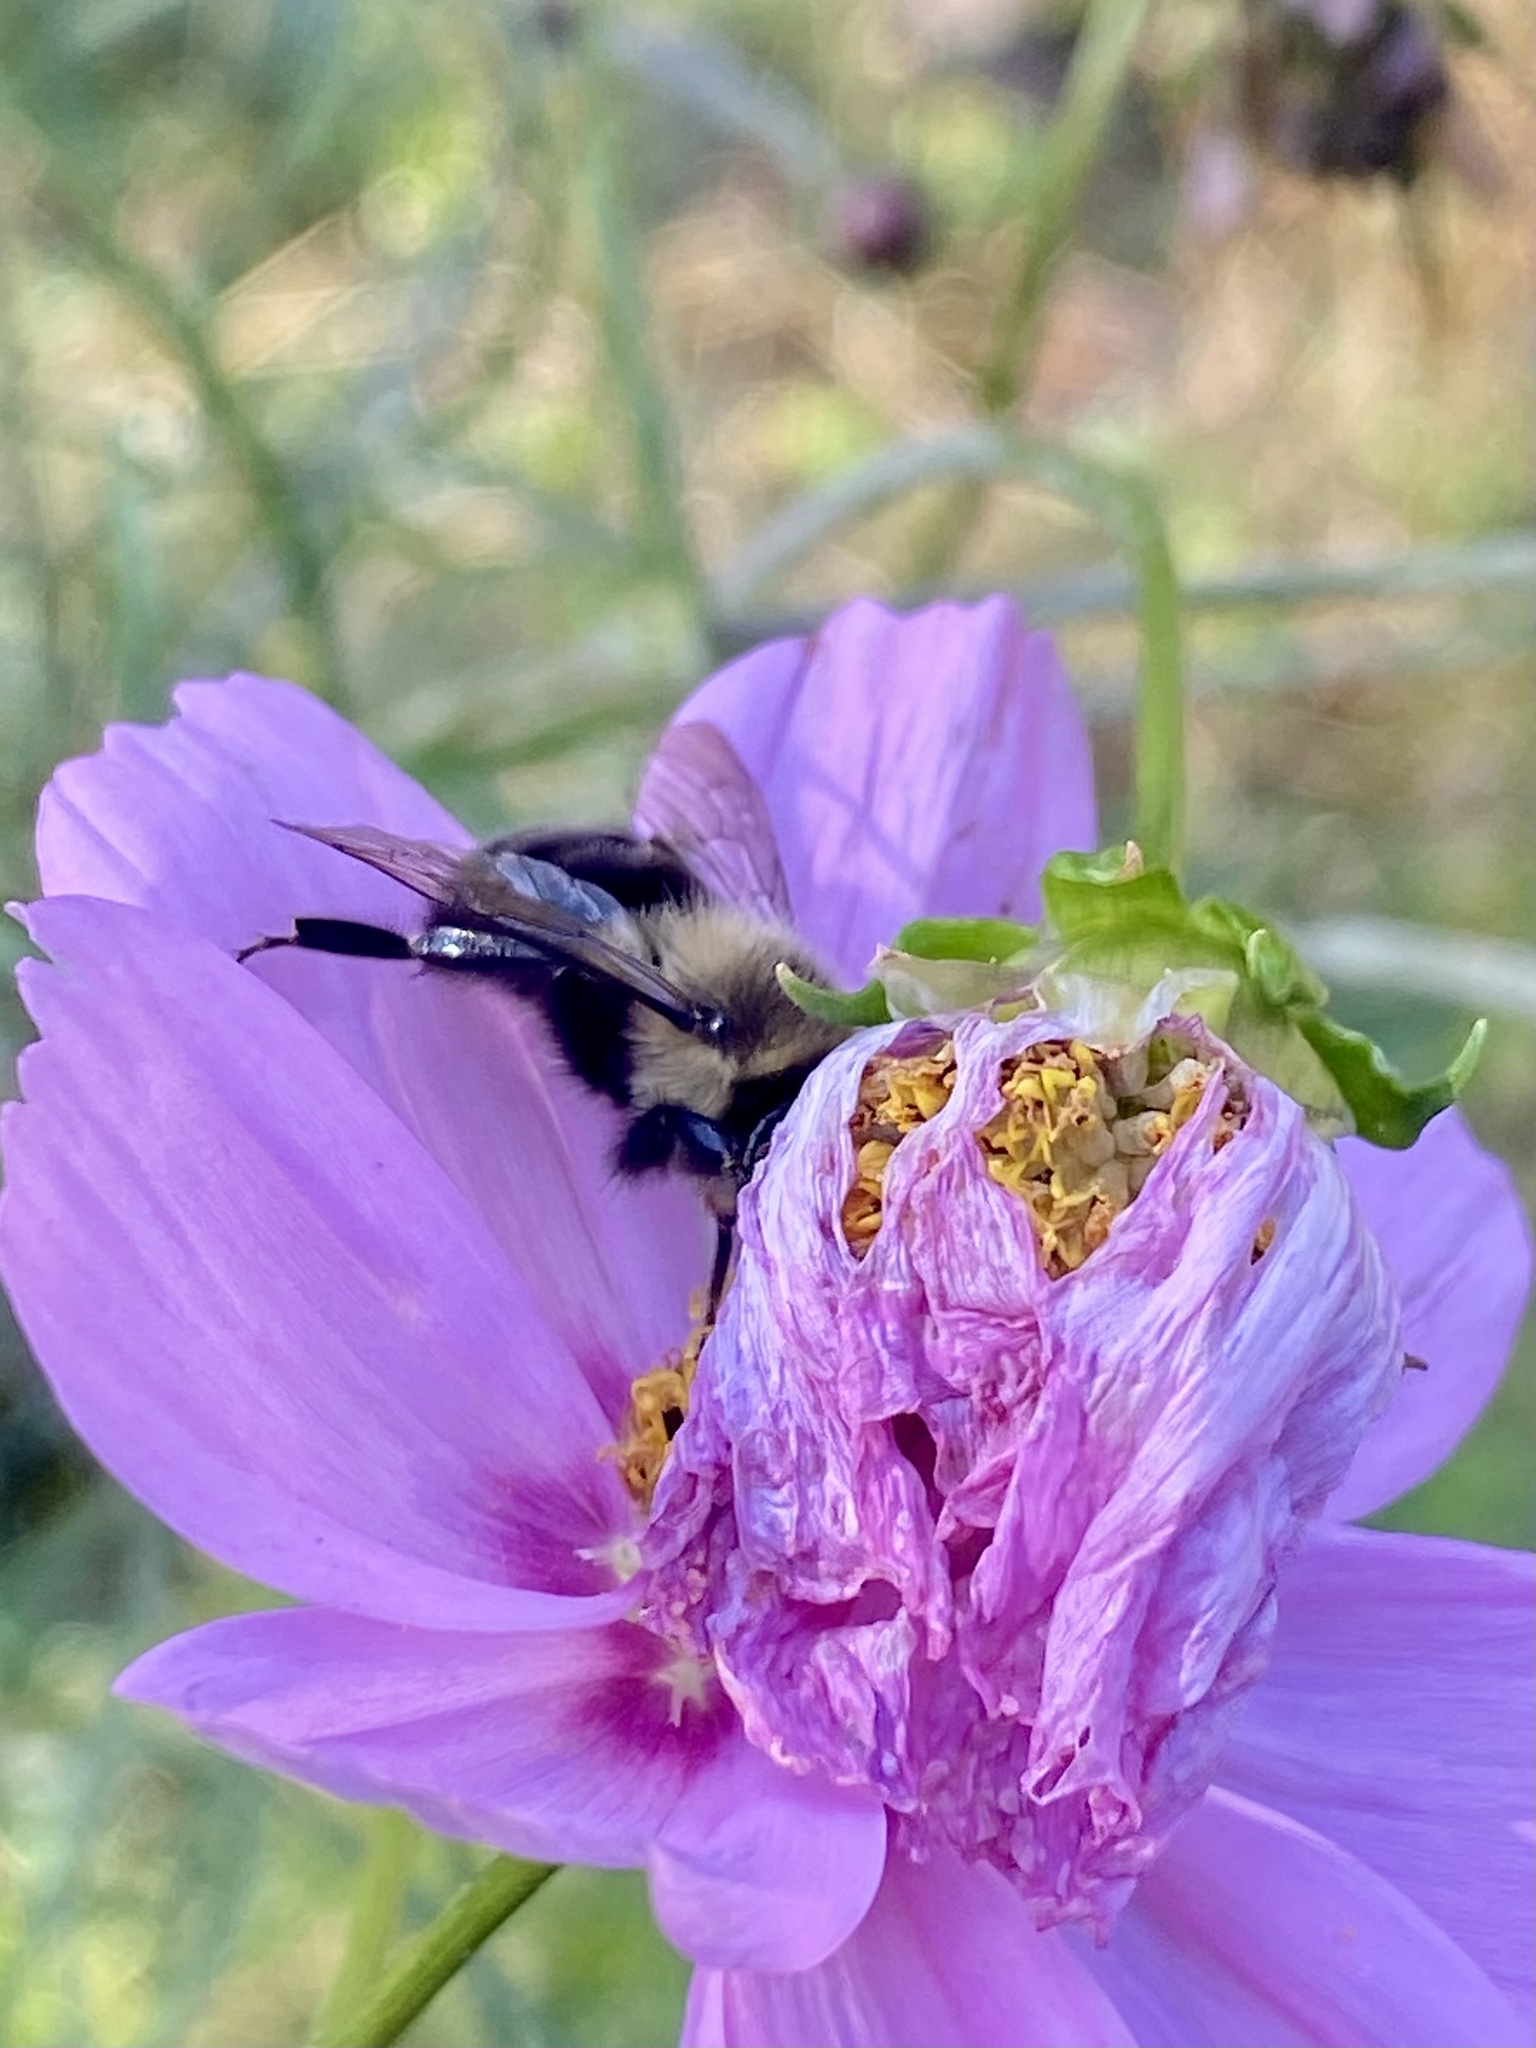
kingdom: Animalia
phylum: Arthropoda
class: Insecta
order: Hymenoptera
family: Apidae
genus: Bombus
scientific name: Bombus impatiens
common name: Common eastern bumble bee
